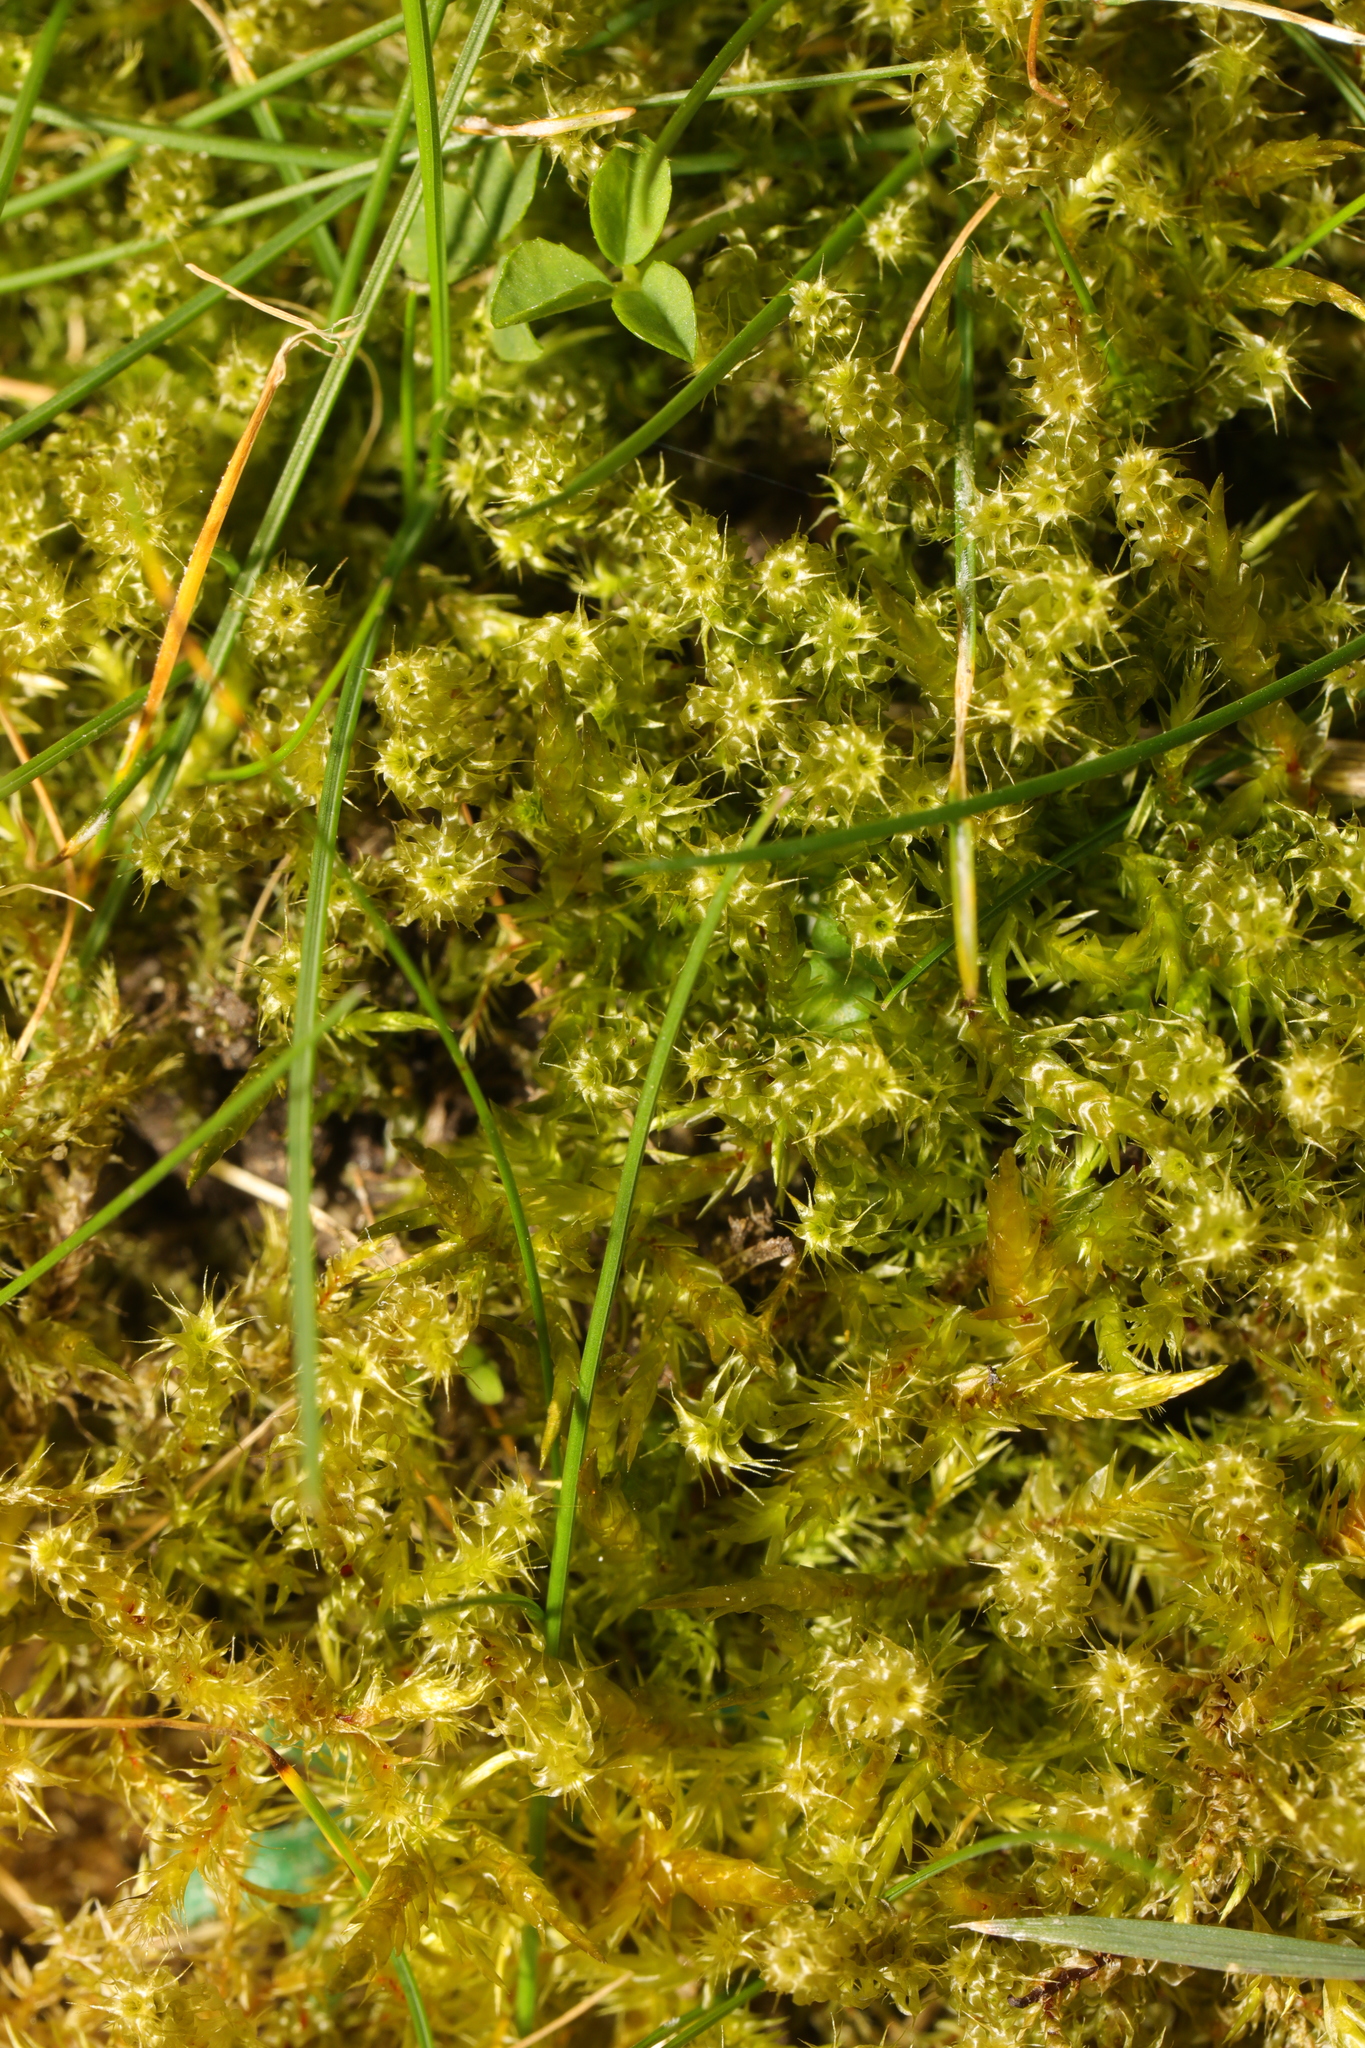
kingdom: Plantae
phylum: Bryophyta
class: Bryopsida
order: Hypnales
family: Hylocomiaceae
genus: Rhytidiadelphus
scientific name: Rhytidiadelphus squarrosus
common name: Springy turf-moss
